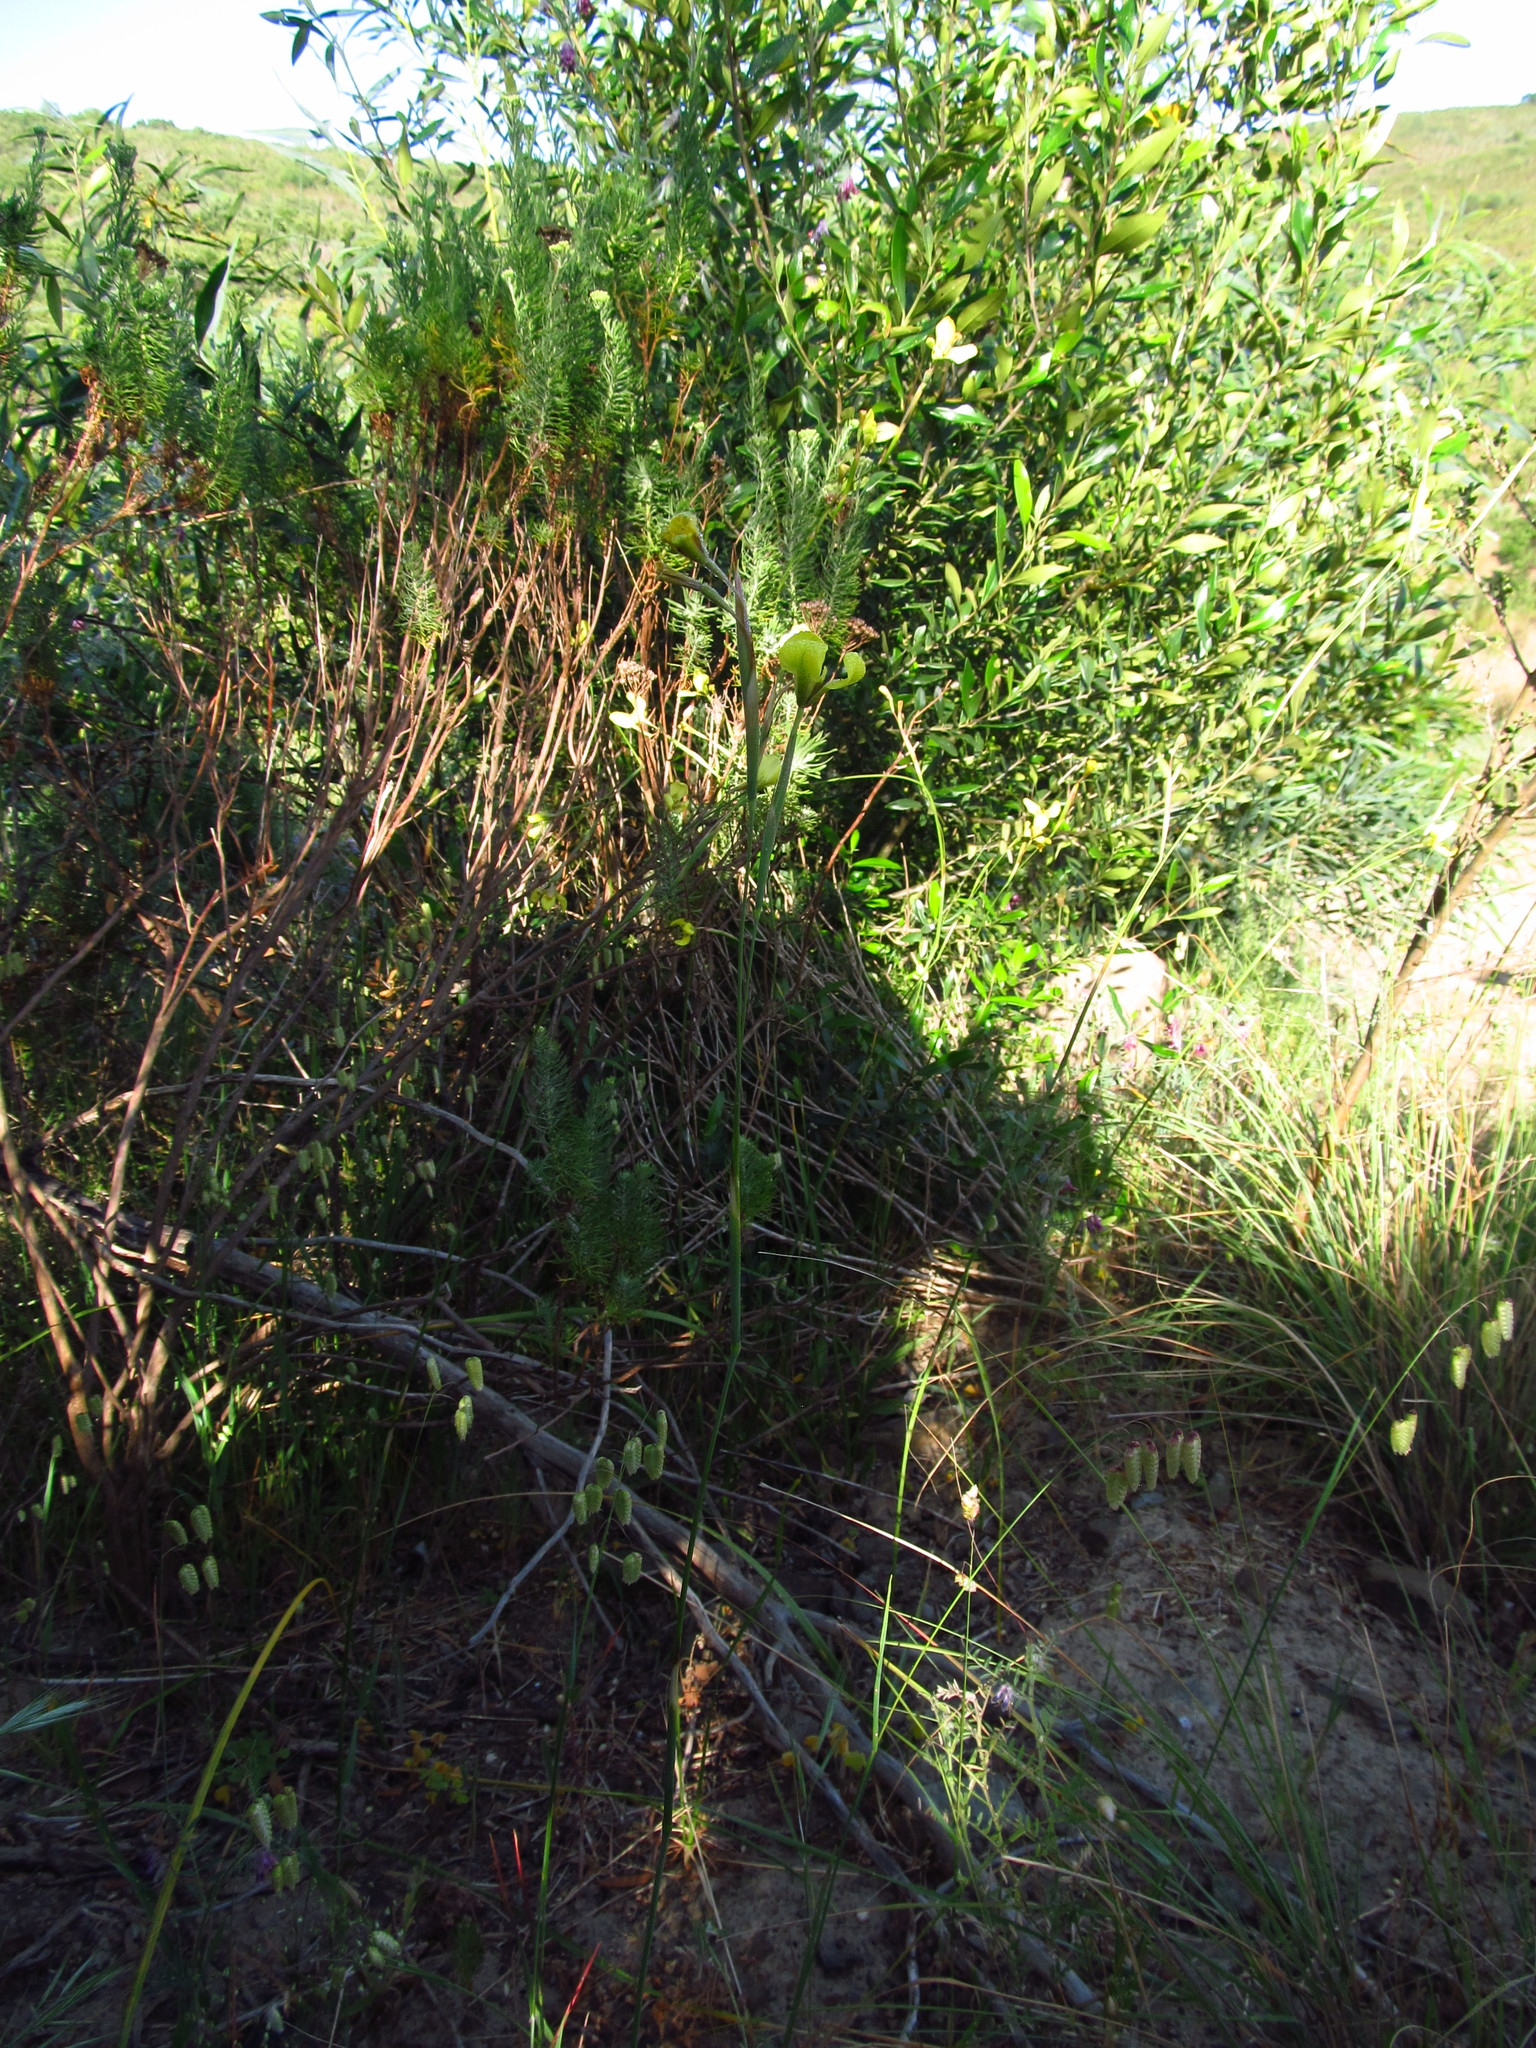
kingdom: Plantae
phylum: Tracheophyta
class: Liliopsida
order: Asparagales
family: Iridaceae
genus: Moraea
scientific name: Moraea bellendenii
